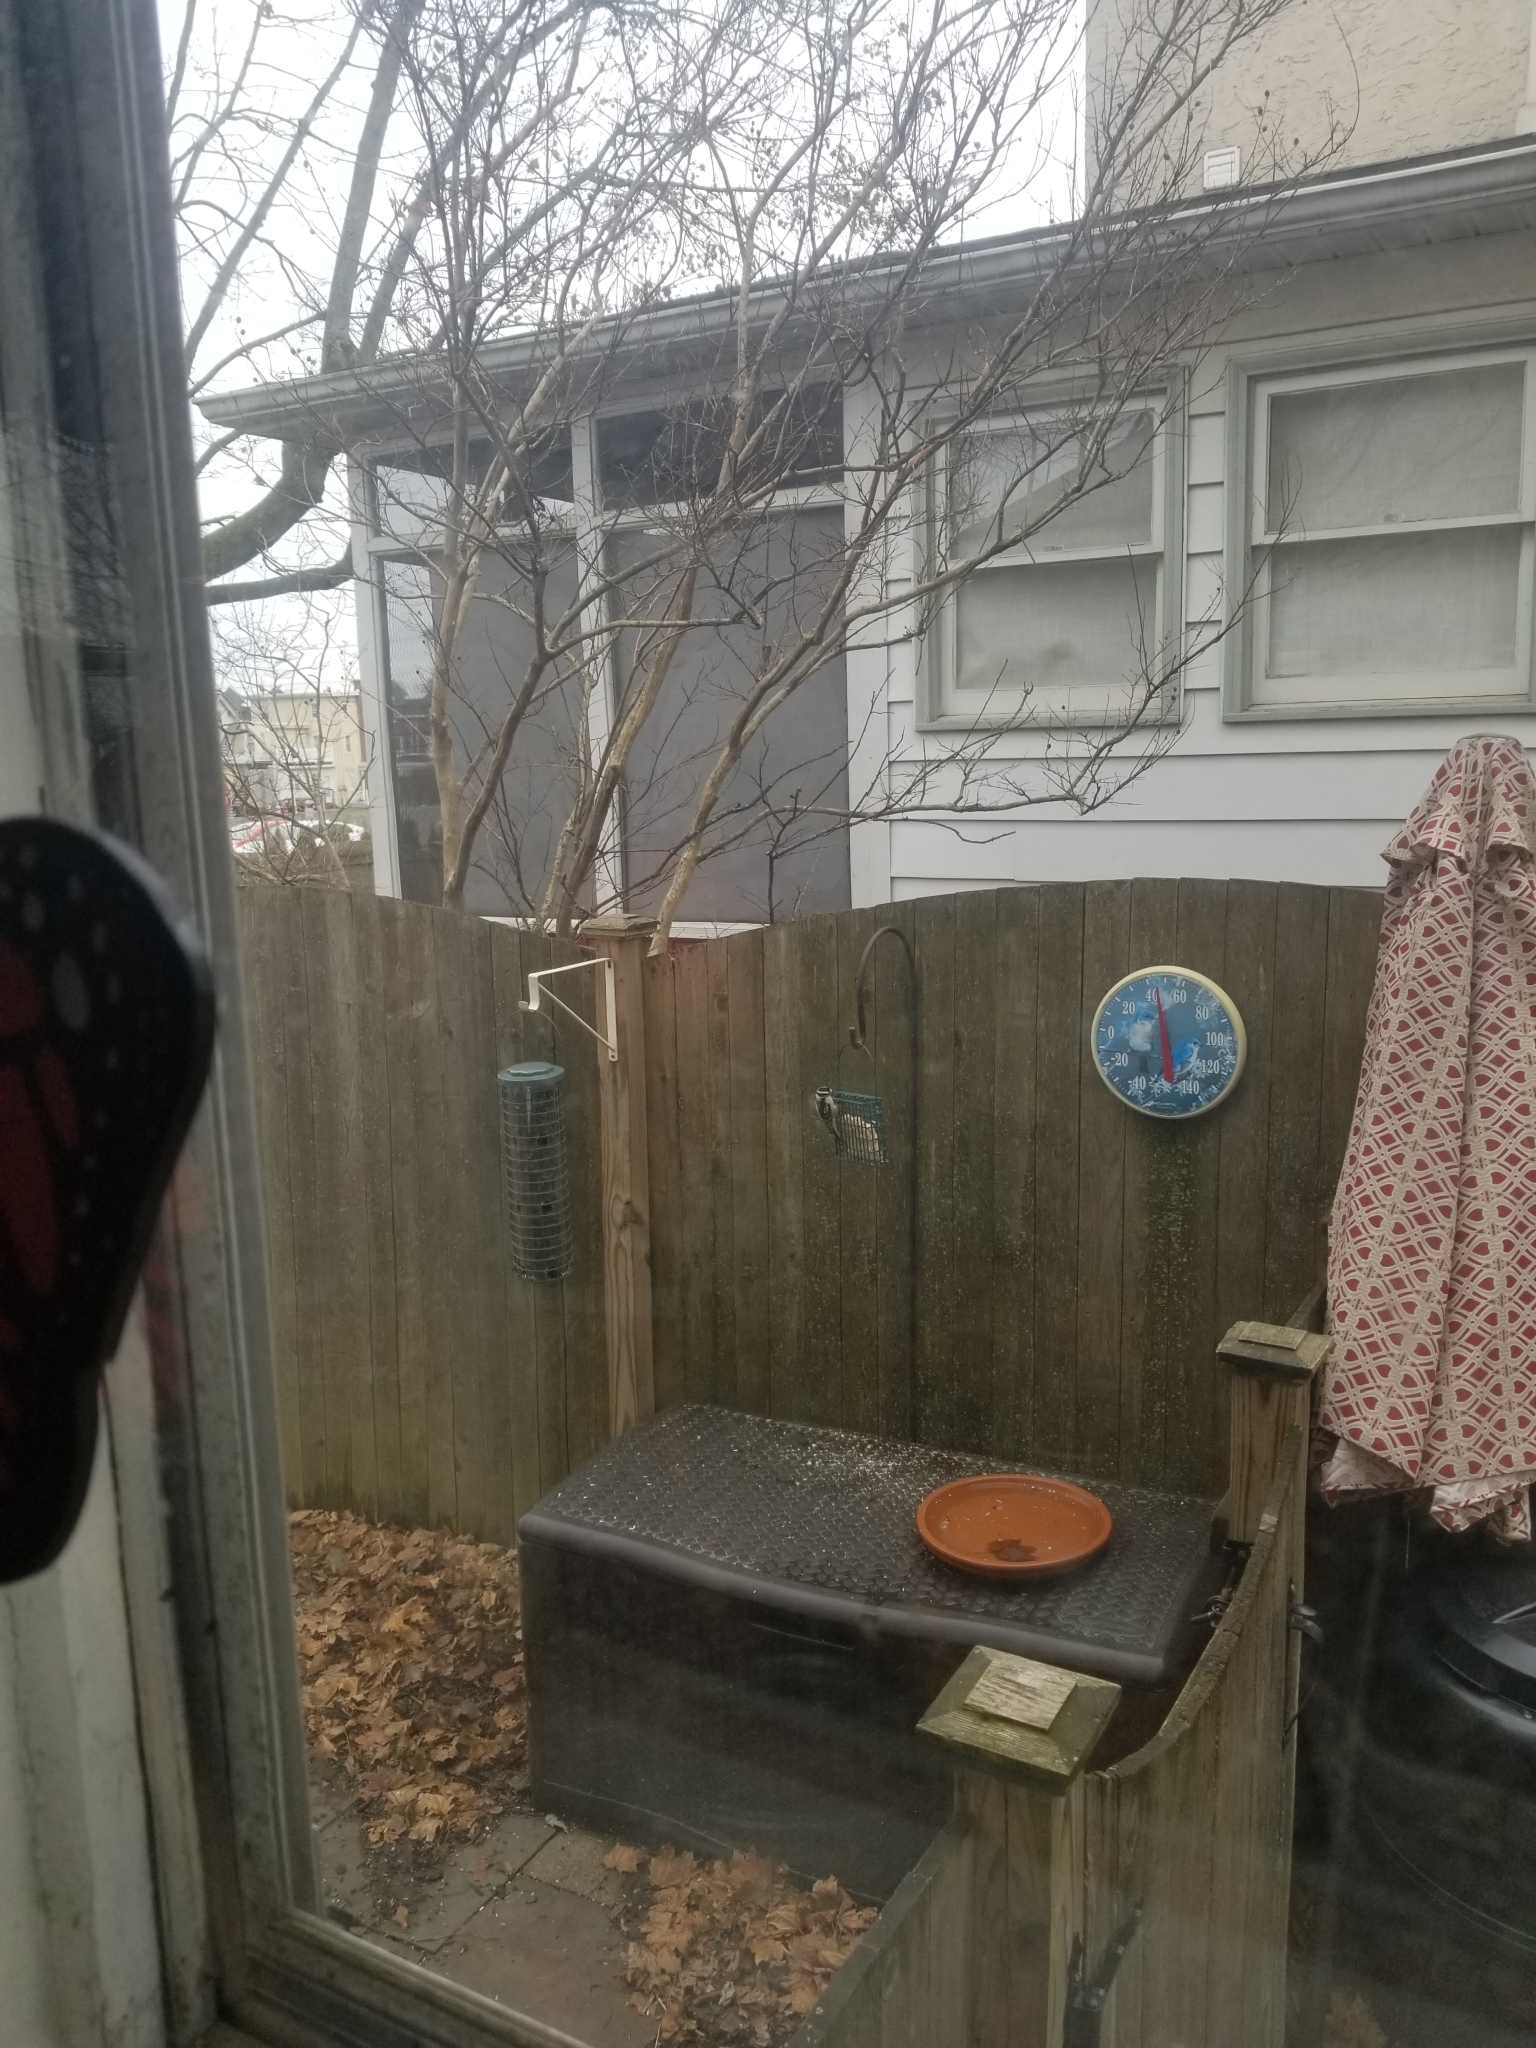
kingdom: Animalia
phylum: Chordata
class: Aves
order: Piciformes
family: Picidae
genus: Dryobates
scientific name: Dryobates pubescens
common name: Downy woodpecker
